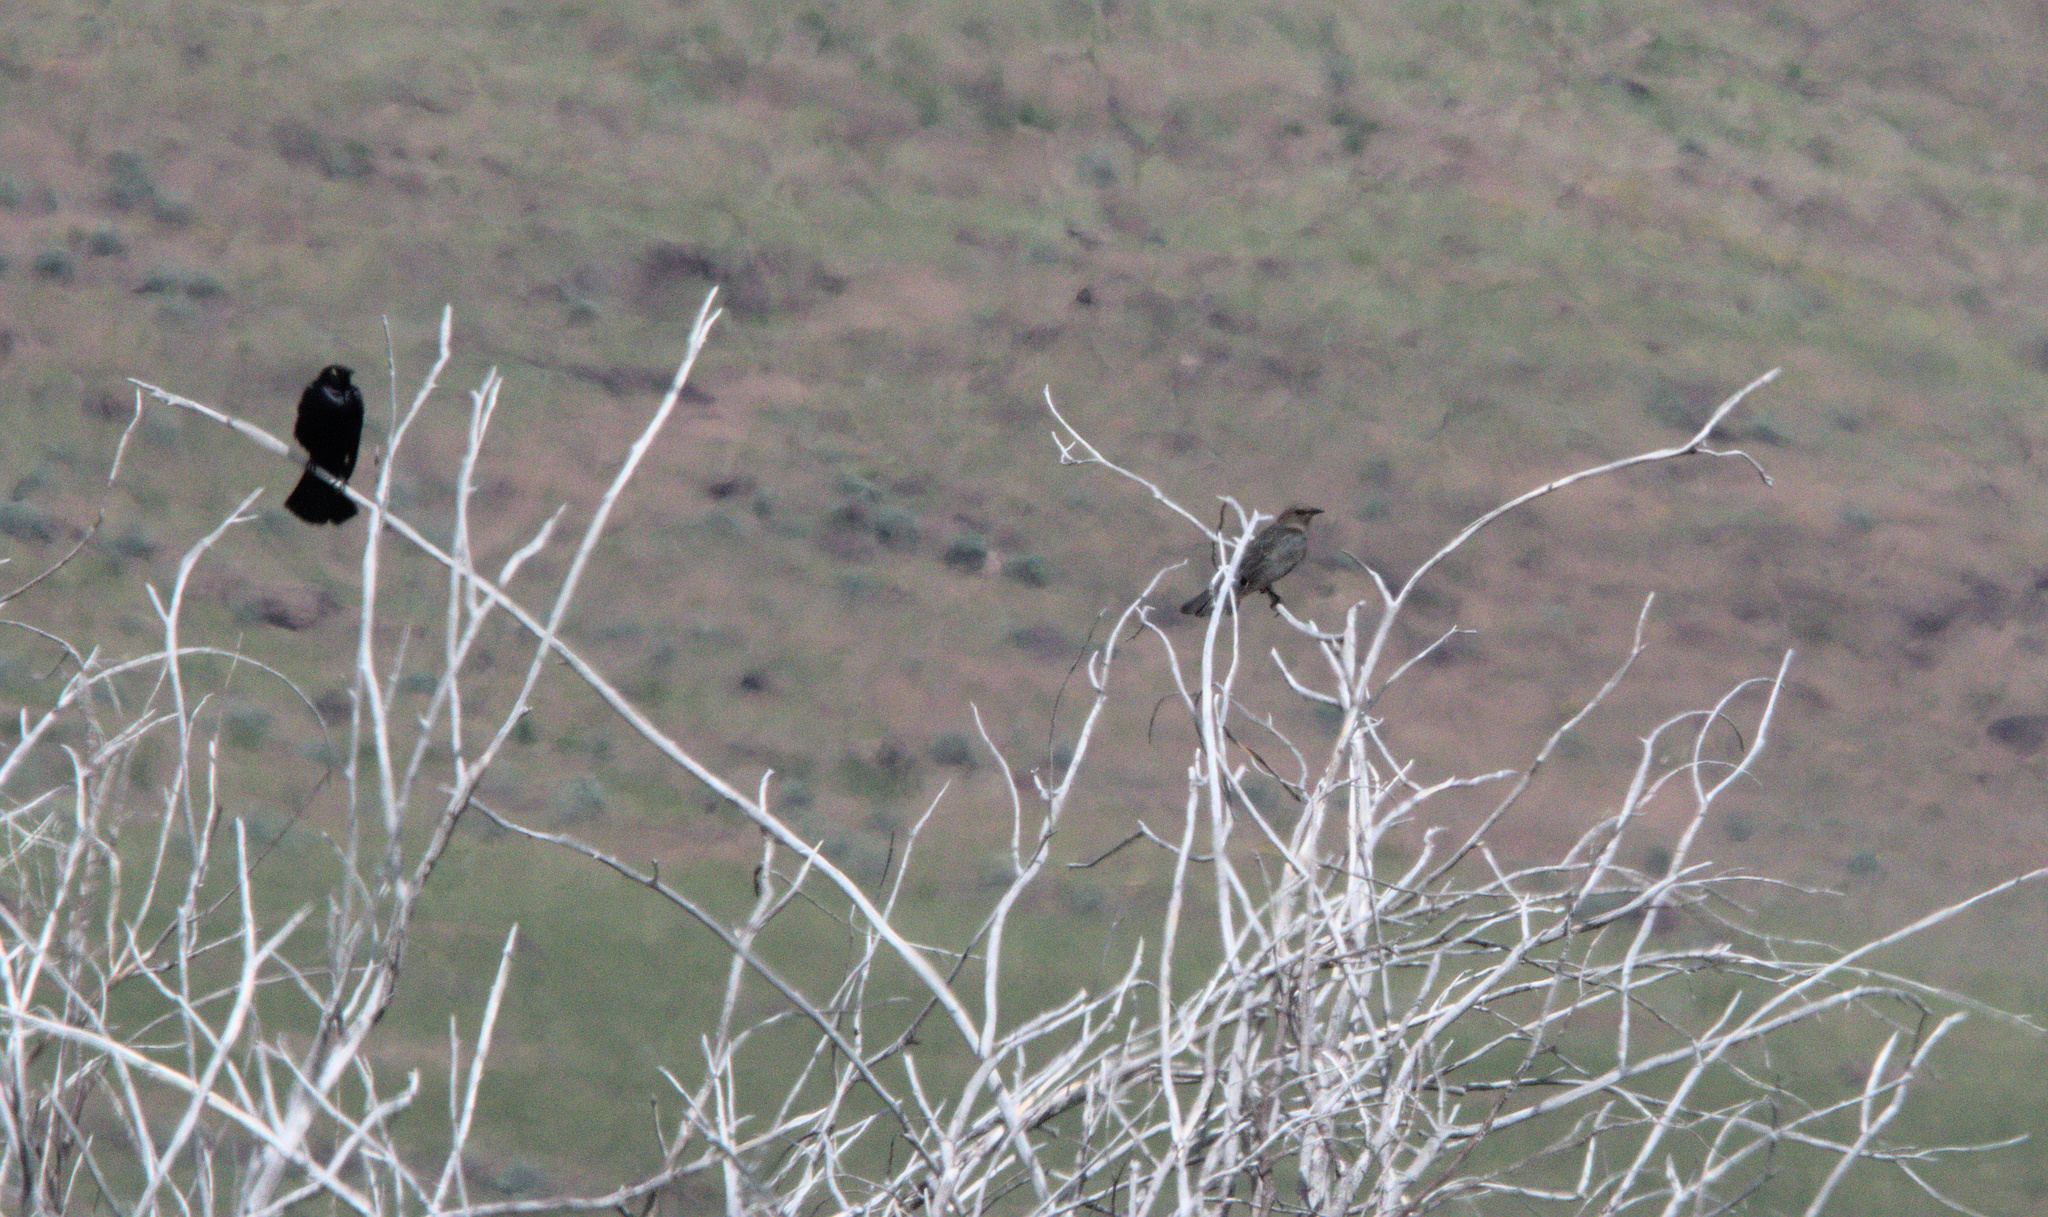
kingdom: Animalia
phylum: Chordata
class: Aves
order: Passeriformes
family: Icteridae
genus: Euphagus
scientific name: Euphagus cyanocephalus
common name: Brewer's blackbird
